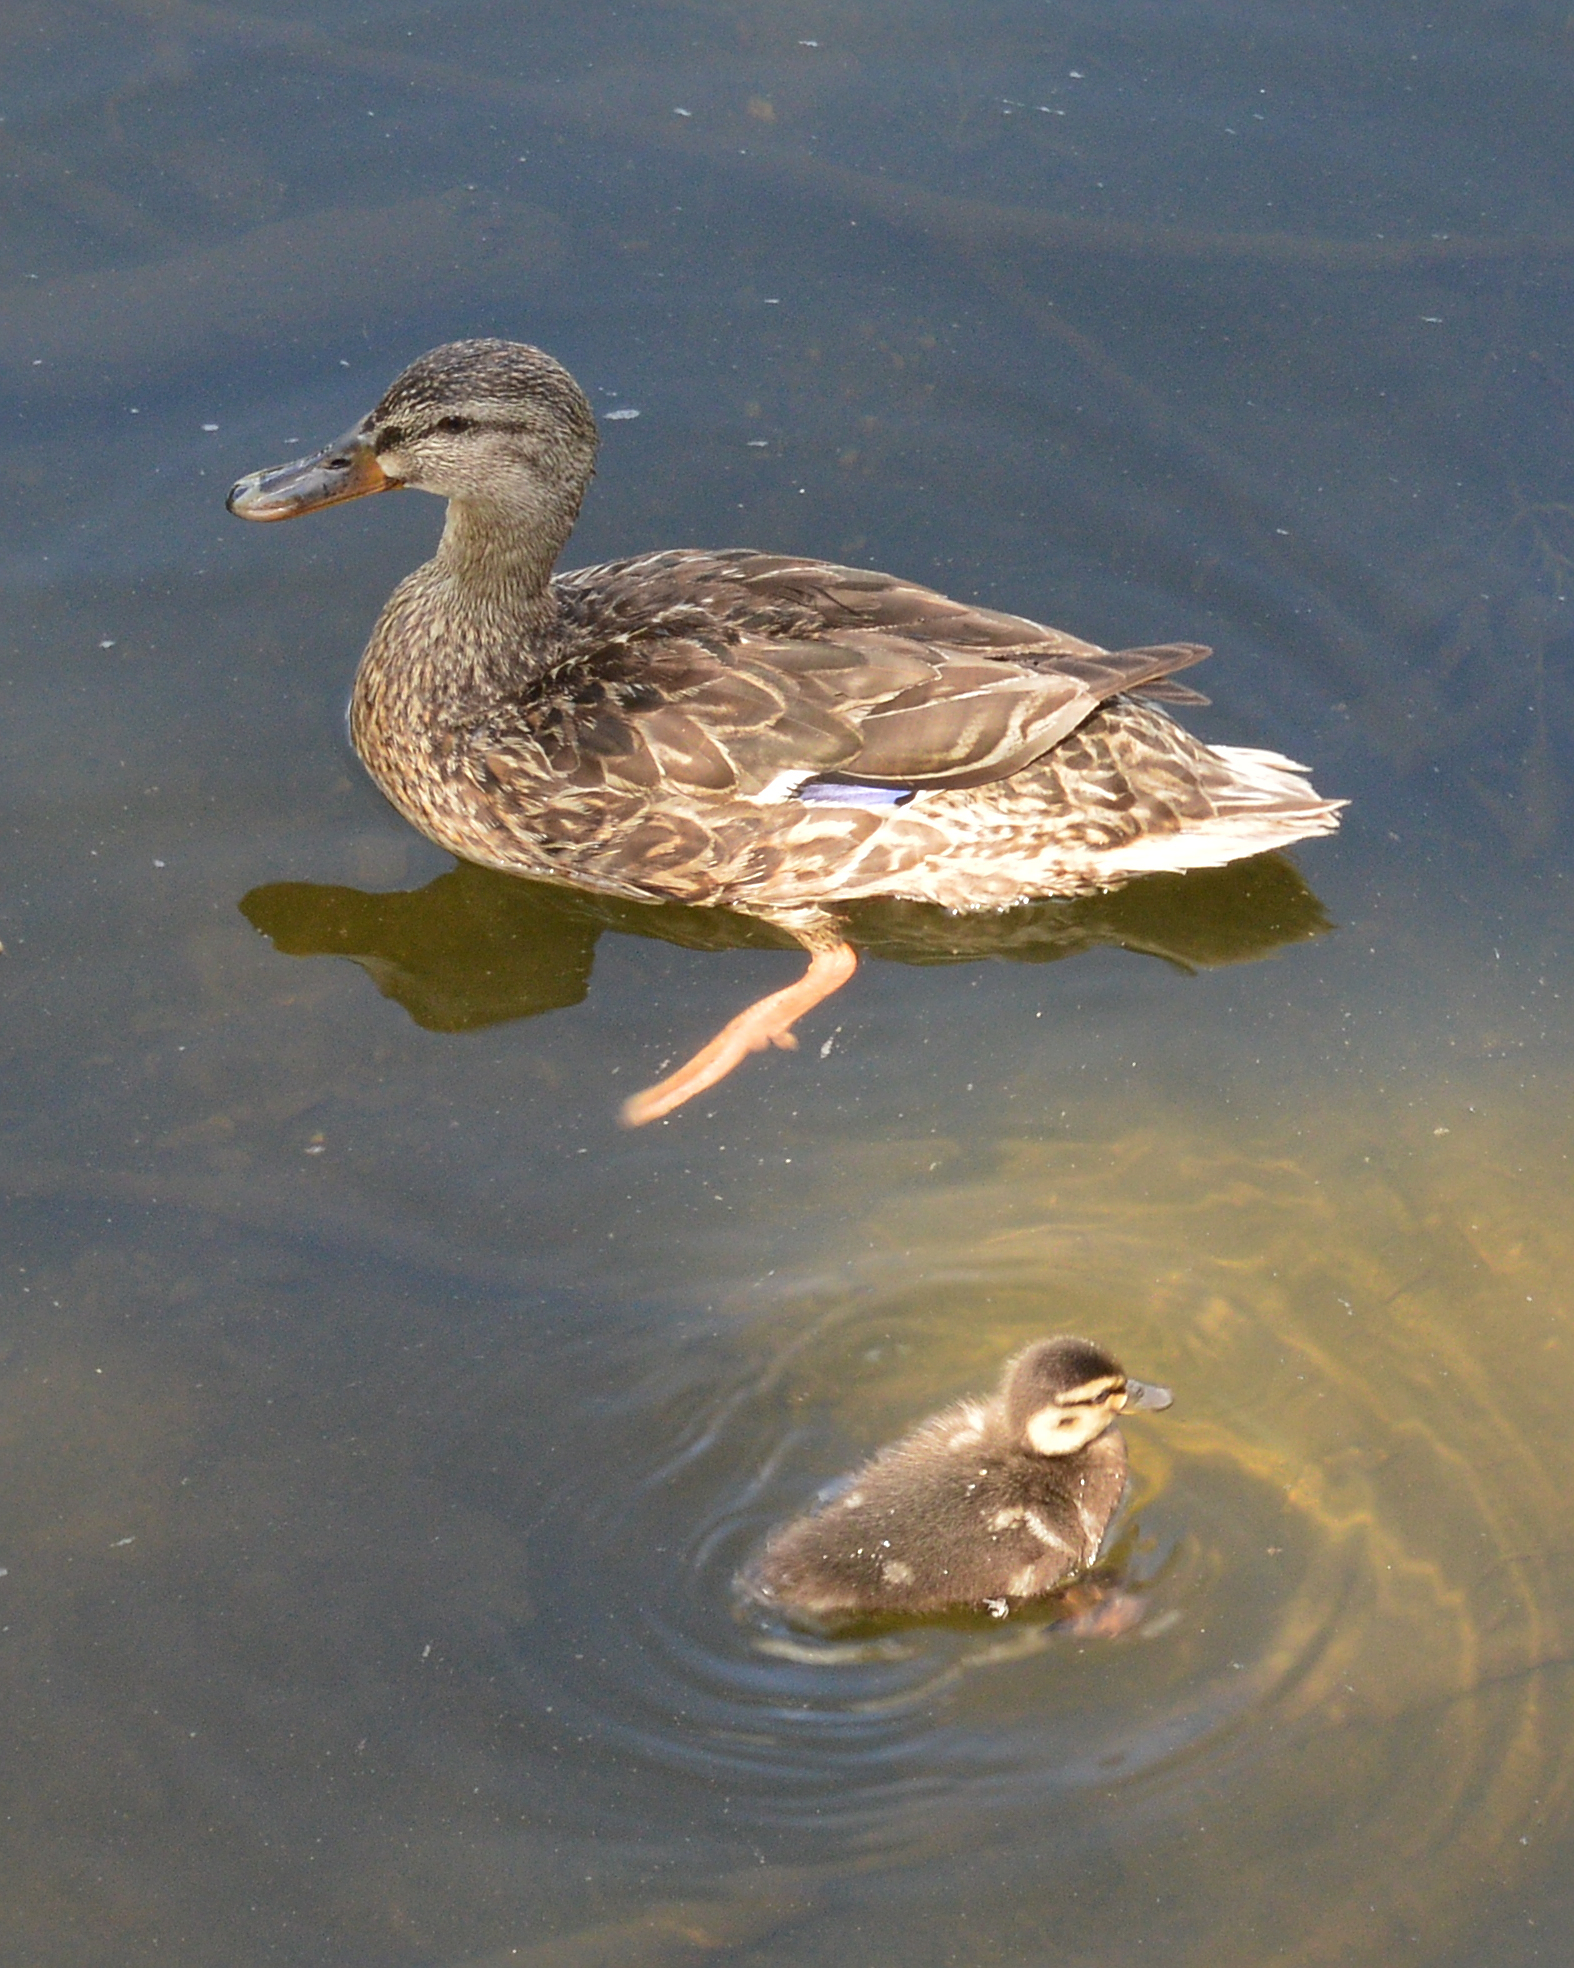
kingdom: Animalia
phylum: Chordata
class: Aves
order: Anseriformes
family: Anatidae
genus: Anas
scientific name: Anas platyrhynchos
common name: Mallard
